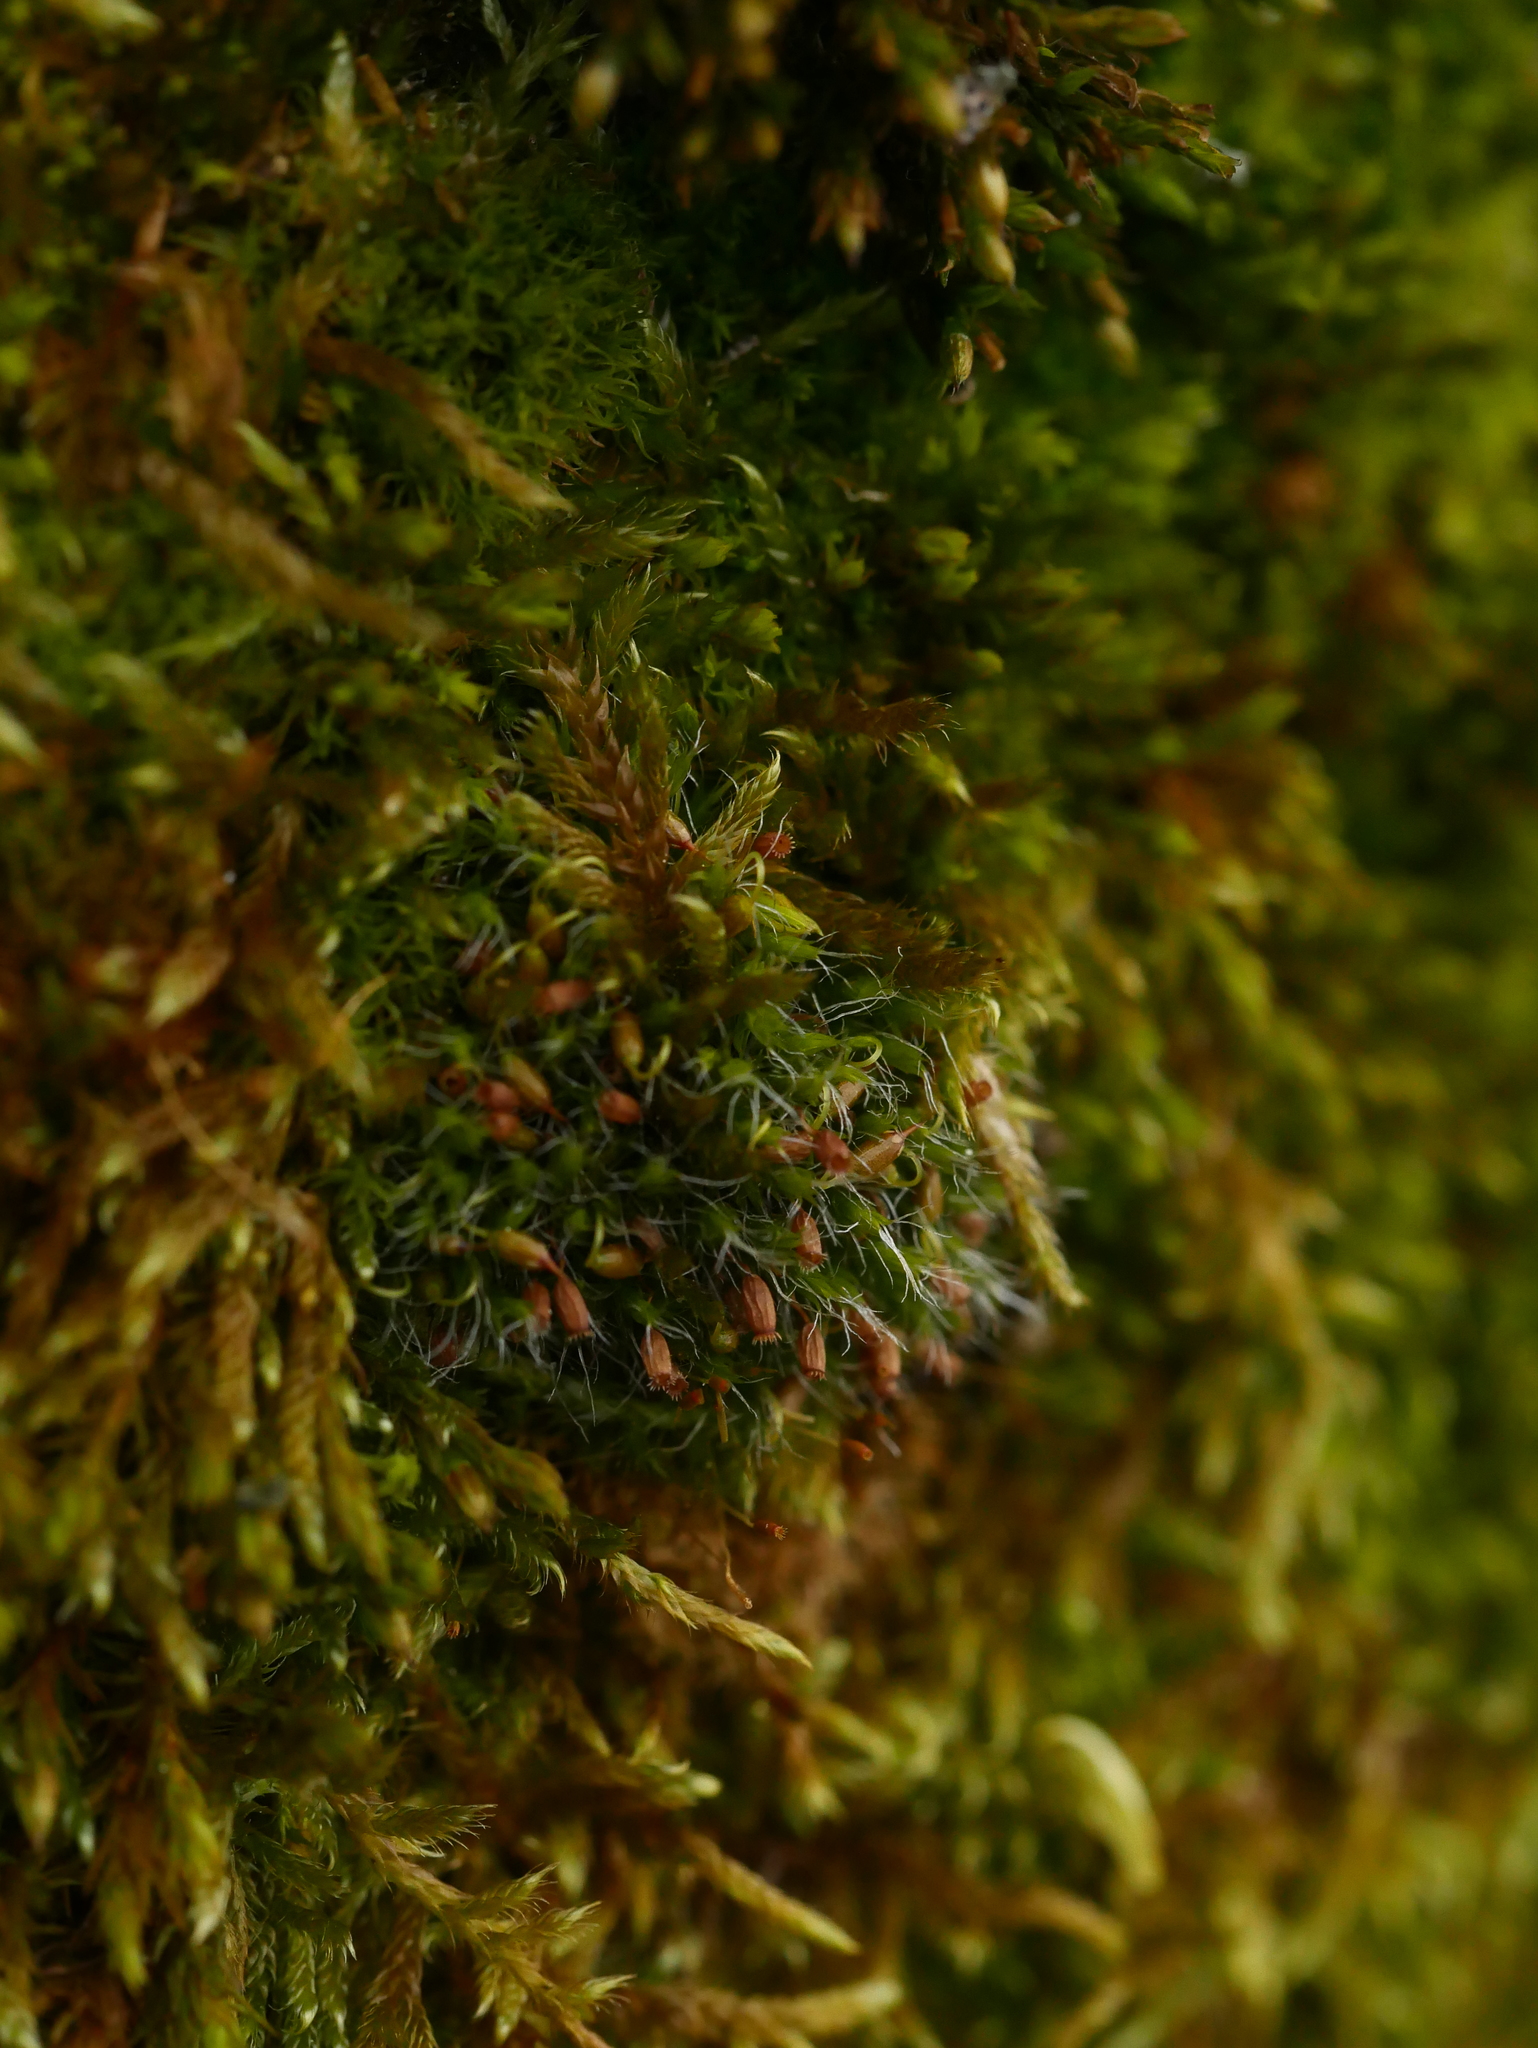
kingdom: Plantae
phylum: Bryophyta
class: Bryopsida
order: Grimmiales
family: Grimmiaceae
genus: Grimmia
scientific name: Grimmia pulvinata
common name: Grey-cushioned grimmia
